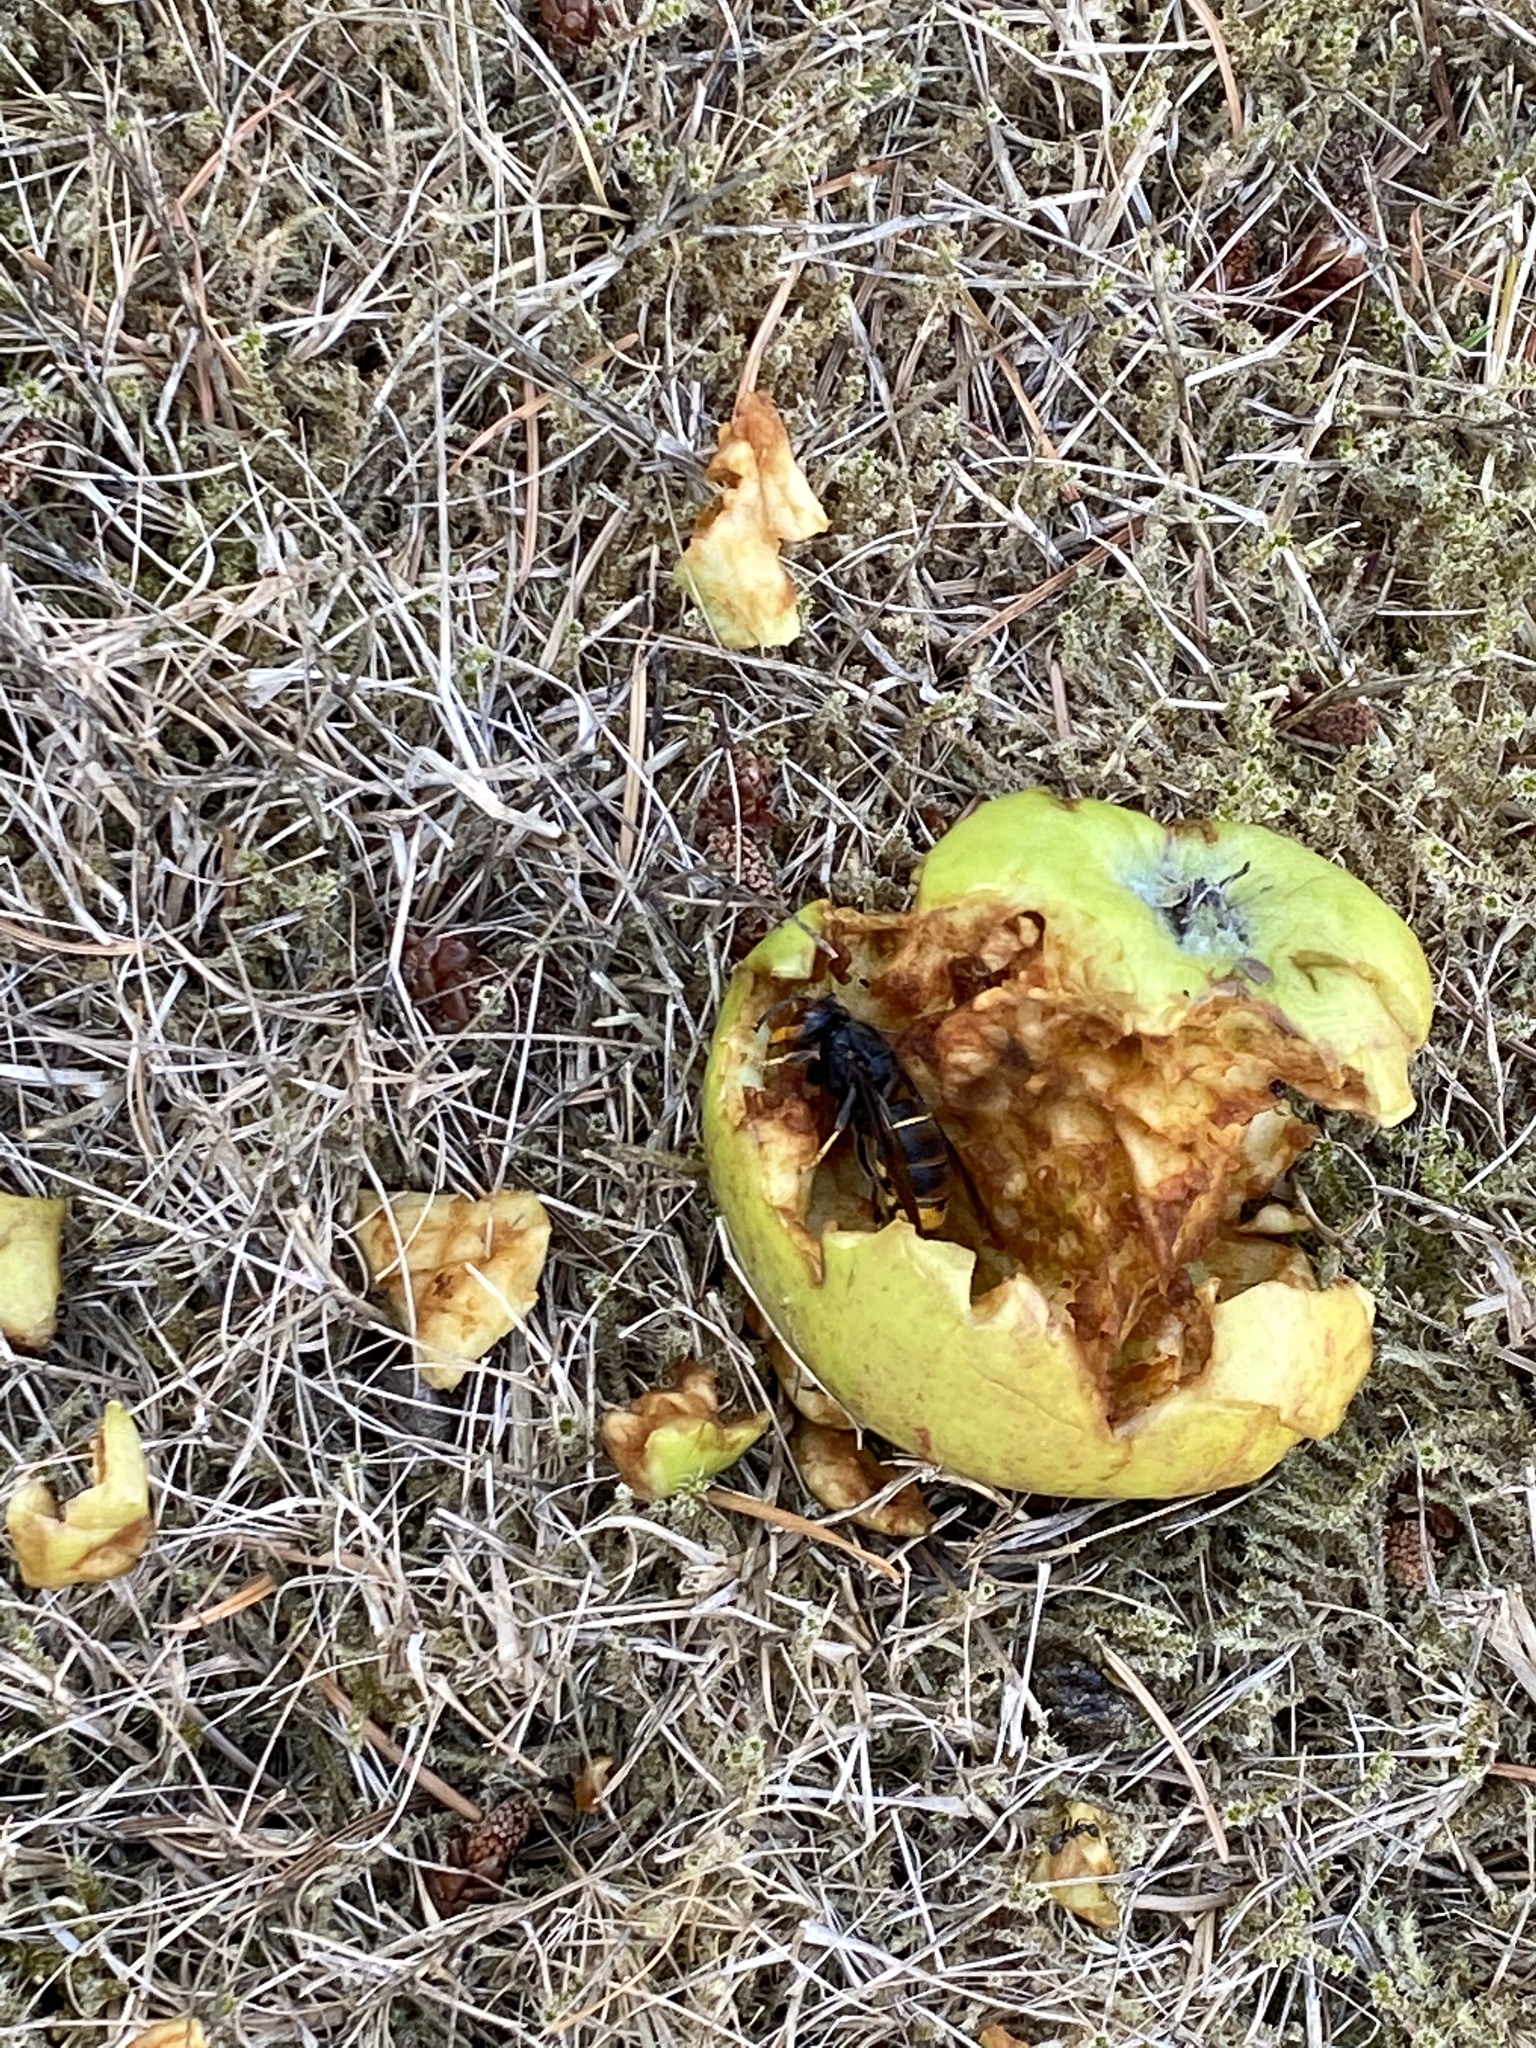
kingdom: Animalia
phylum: Arthropoda
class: Insecta
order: Hymenoptera
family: Vespidae
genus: Vespa
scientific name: Vespa velutina
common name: Asian hornet
